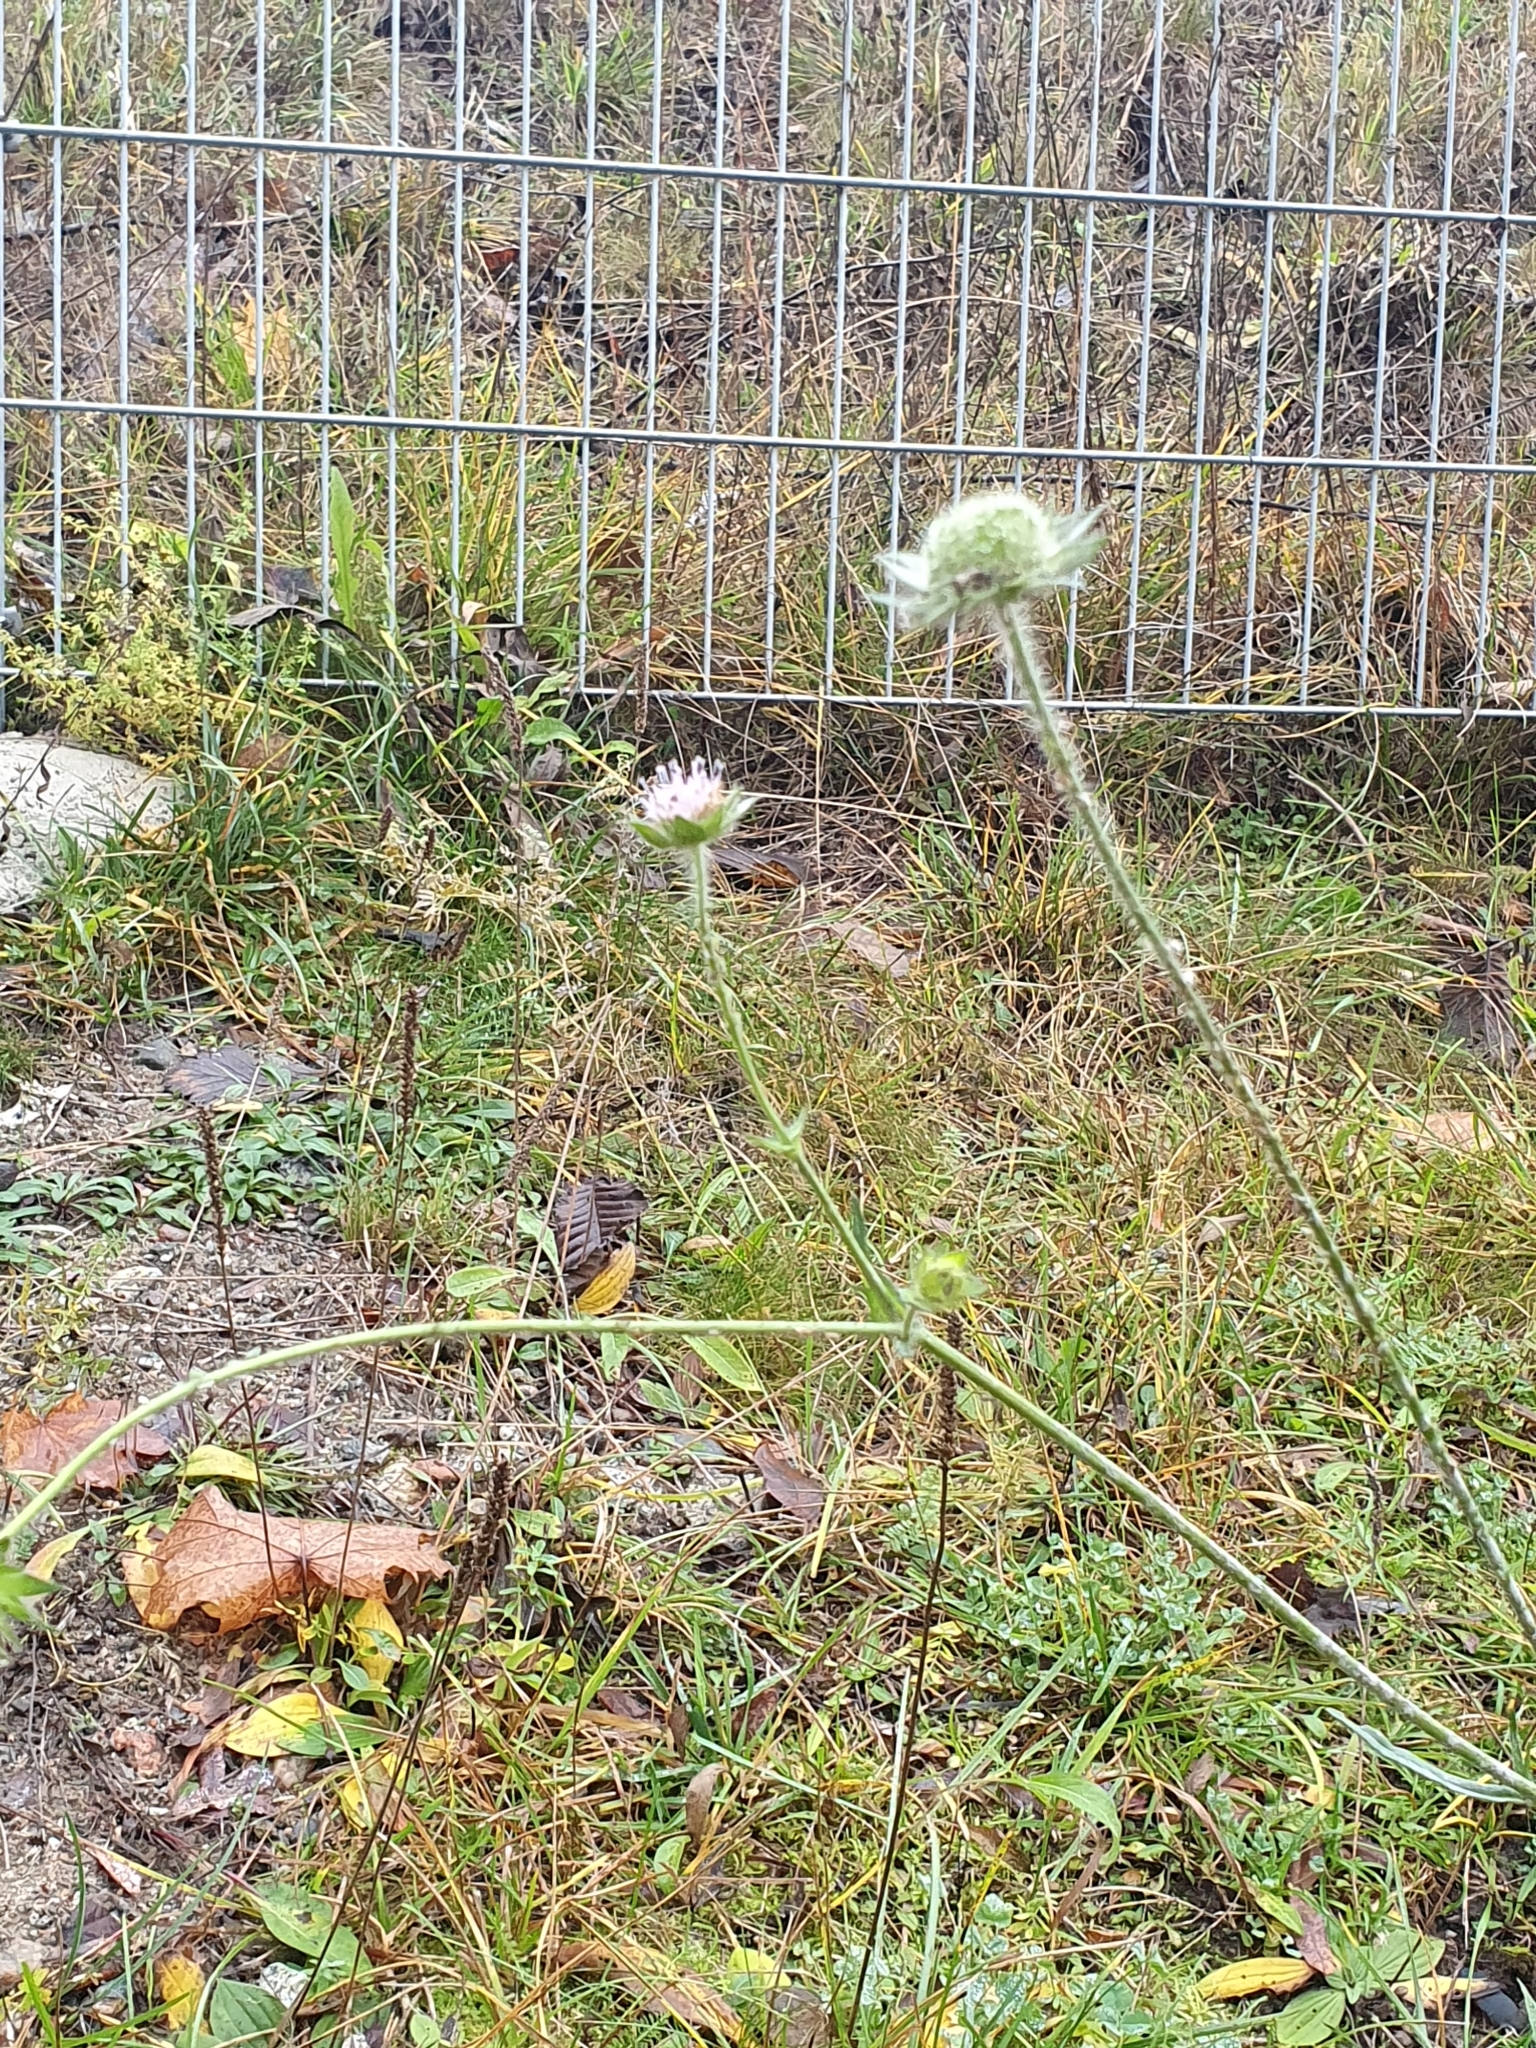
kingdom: Plantae
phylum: Tracheophyta
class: Magnoliopsida
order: Dipsacales
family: Caprifoliaceae
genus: Knautia
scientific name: Knautia arvensis
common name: Field scabiosa
